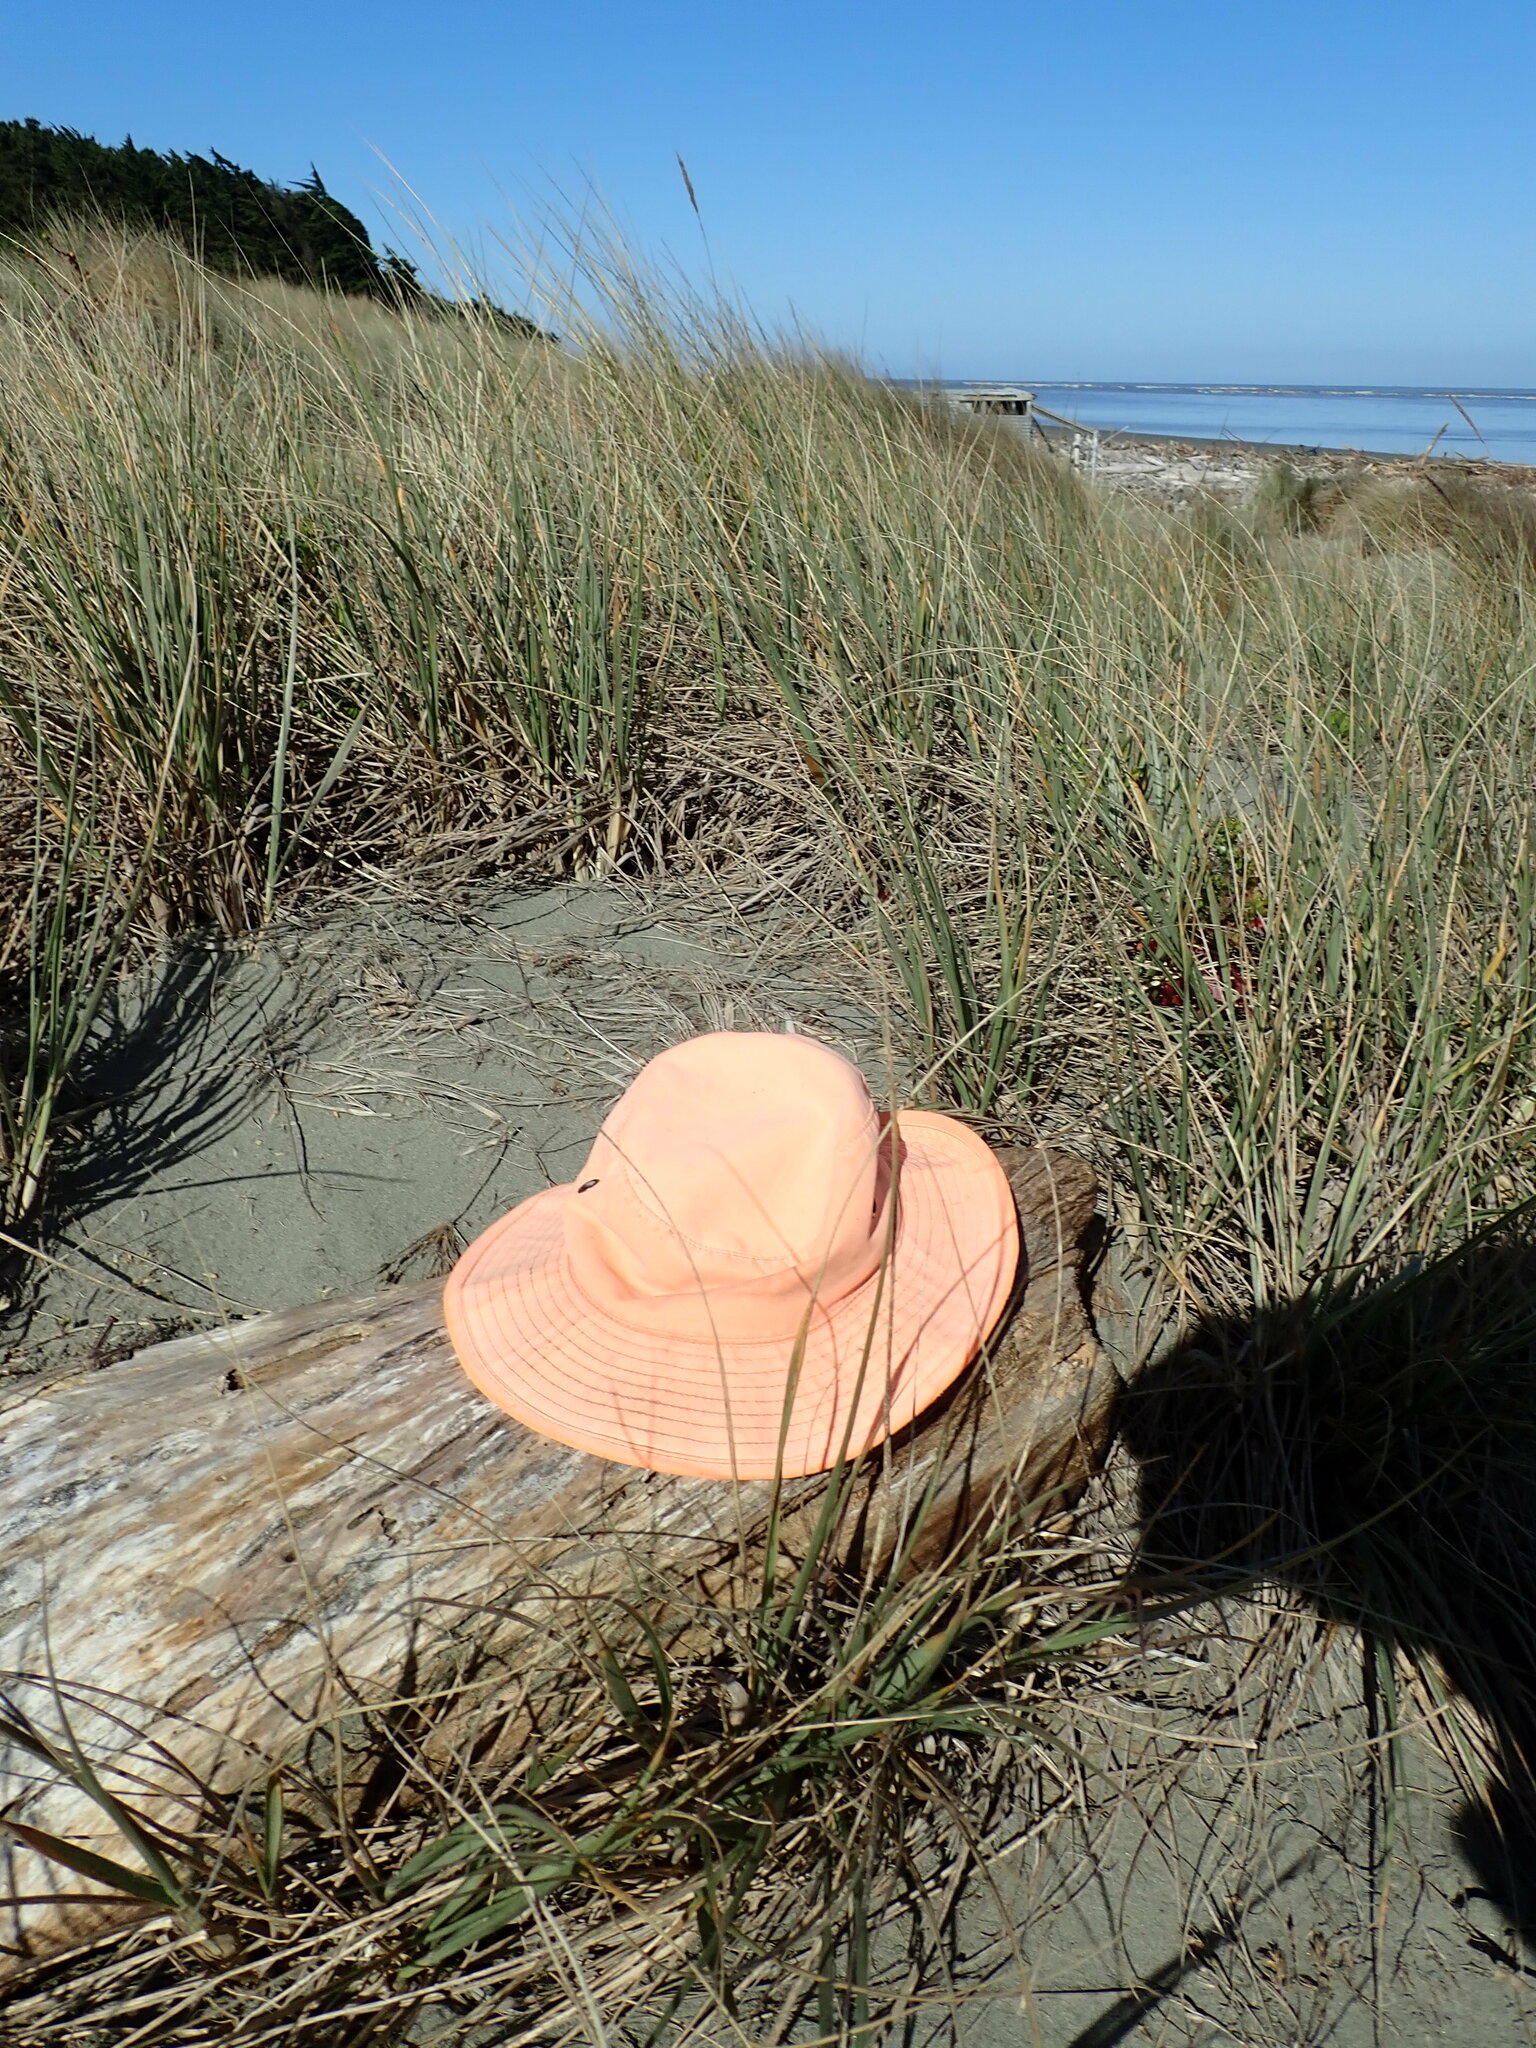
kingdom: Animalia
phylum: Arthropoda
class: Insecta
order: Coleoptera
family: Scarabaeidae
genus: Pericoptus
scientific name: Pericoptus truncatus
